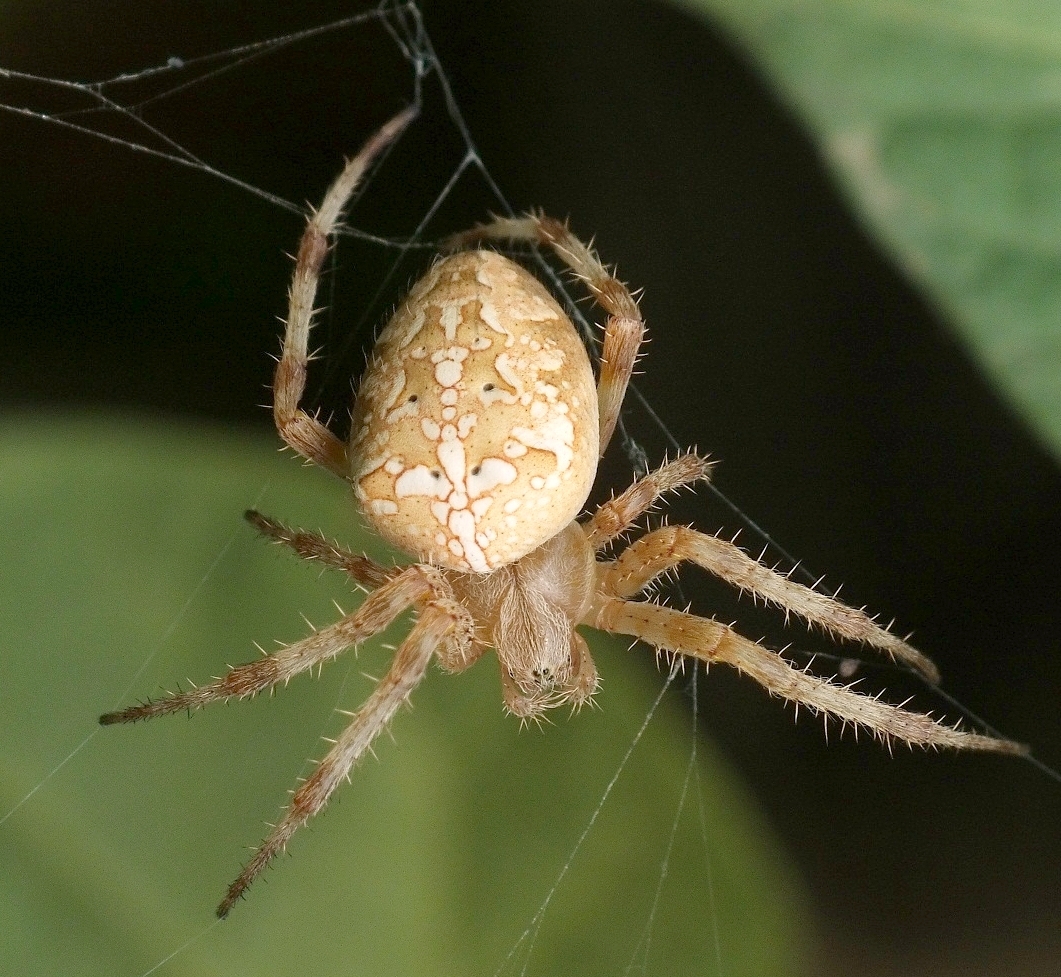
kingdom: Animalia
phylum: Arthropoda
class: Arachnida
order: Araneae
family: Araneidae
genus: Araneus
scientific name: Araneus diadematus
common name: Cross orbweaver
